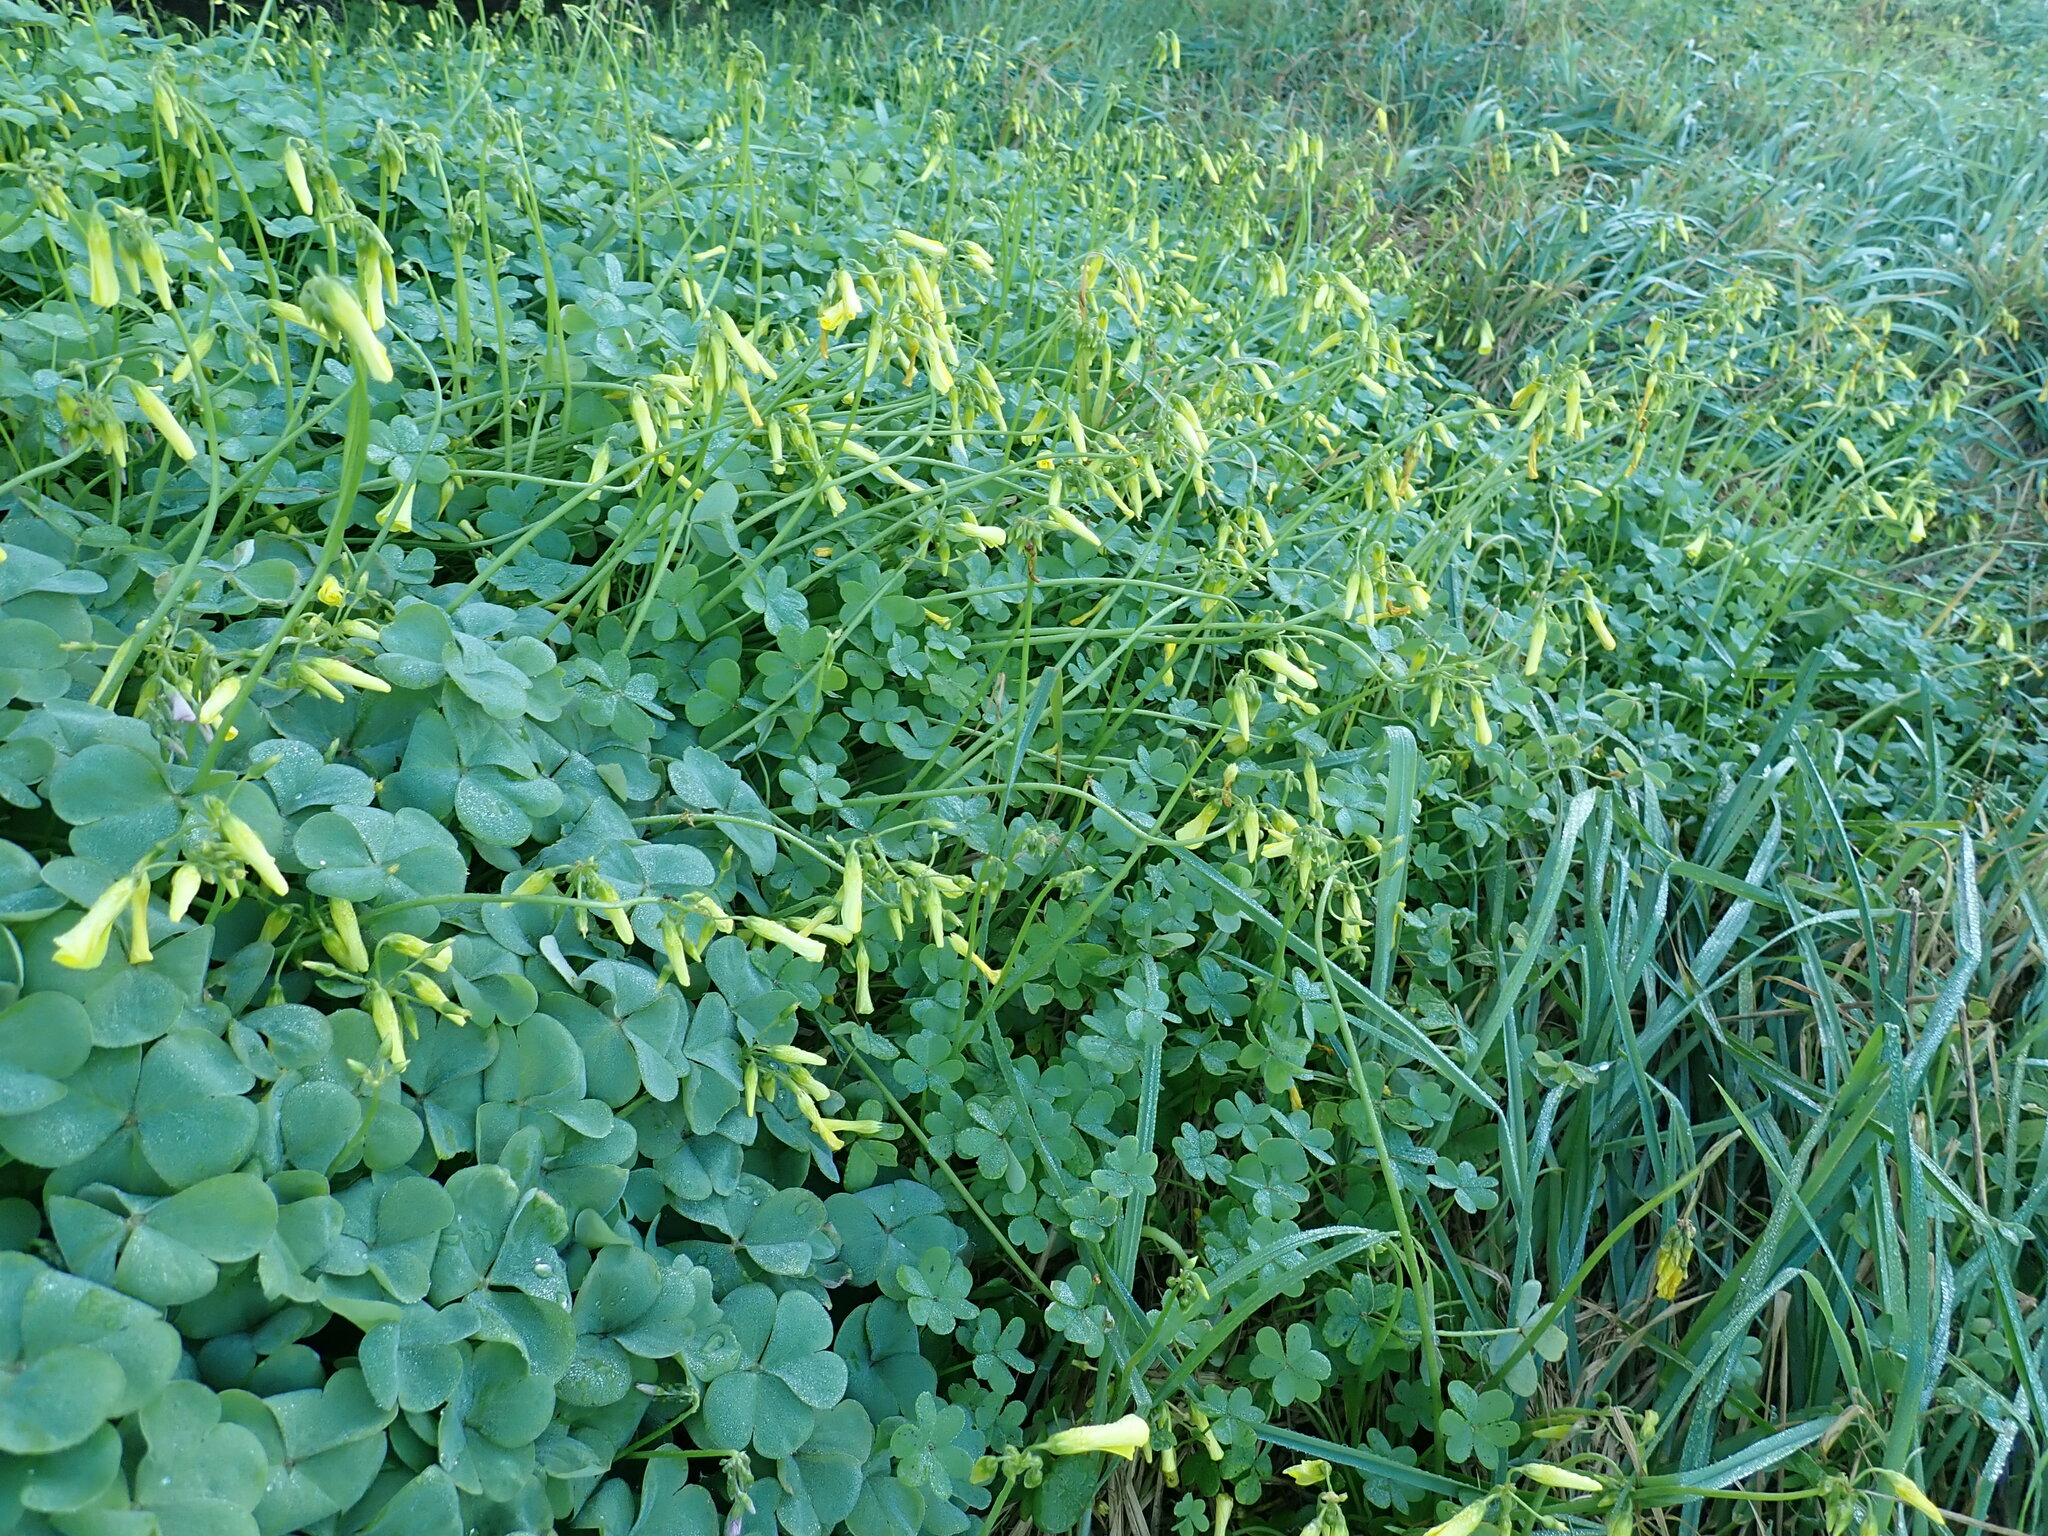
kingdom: Plantae
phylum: Tracheophyta
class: Magnoliopsida
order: Oxalidales
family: Oxalidaceae
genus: Oxalis
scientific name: Oxalis pes-caprae
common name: Bermuda-buttercup
